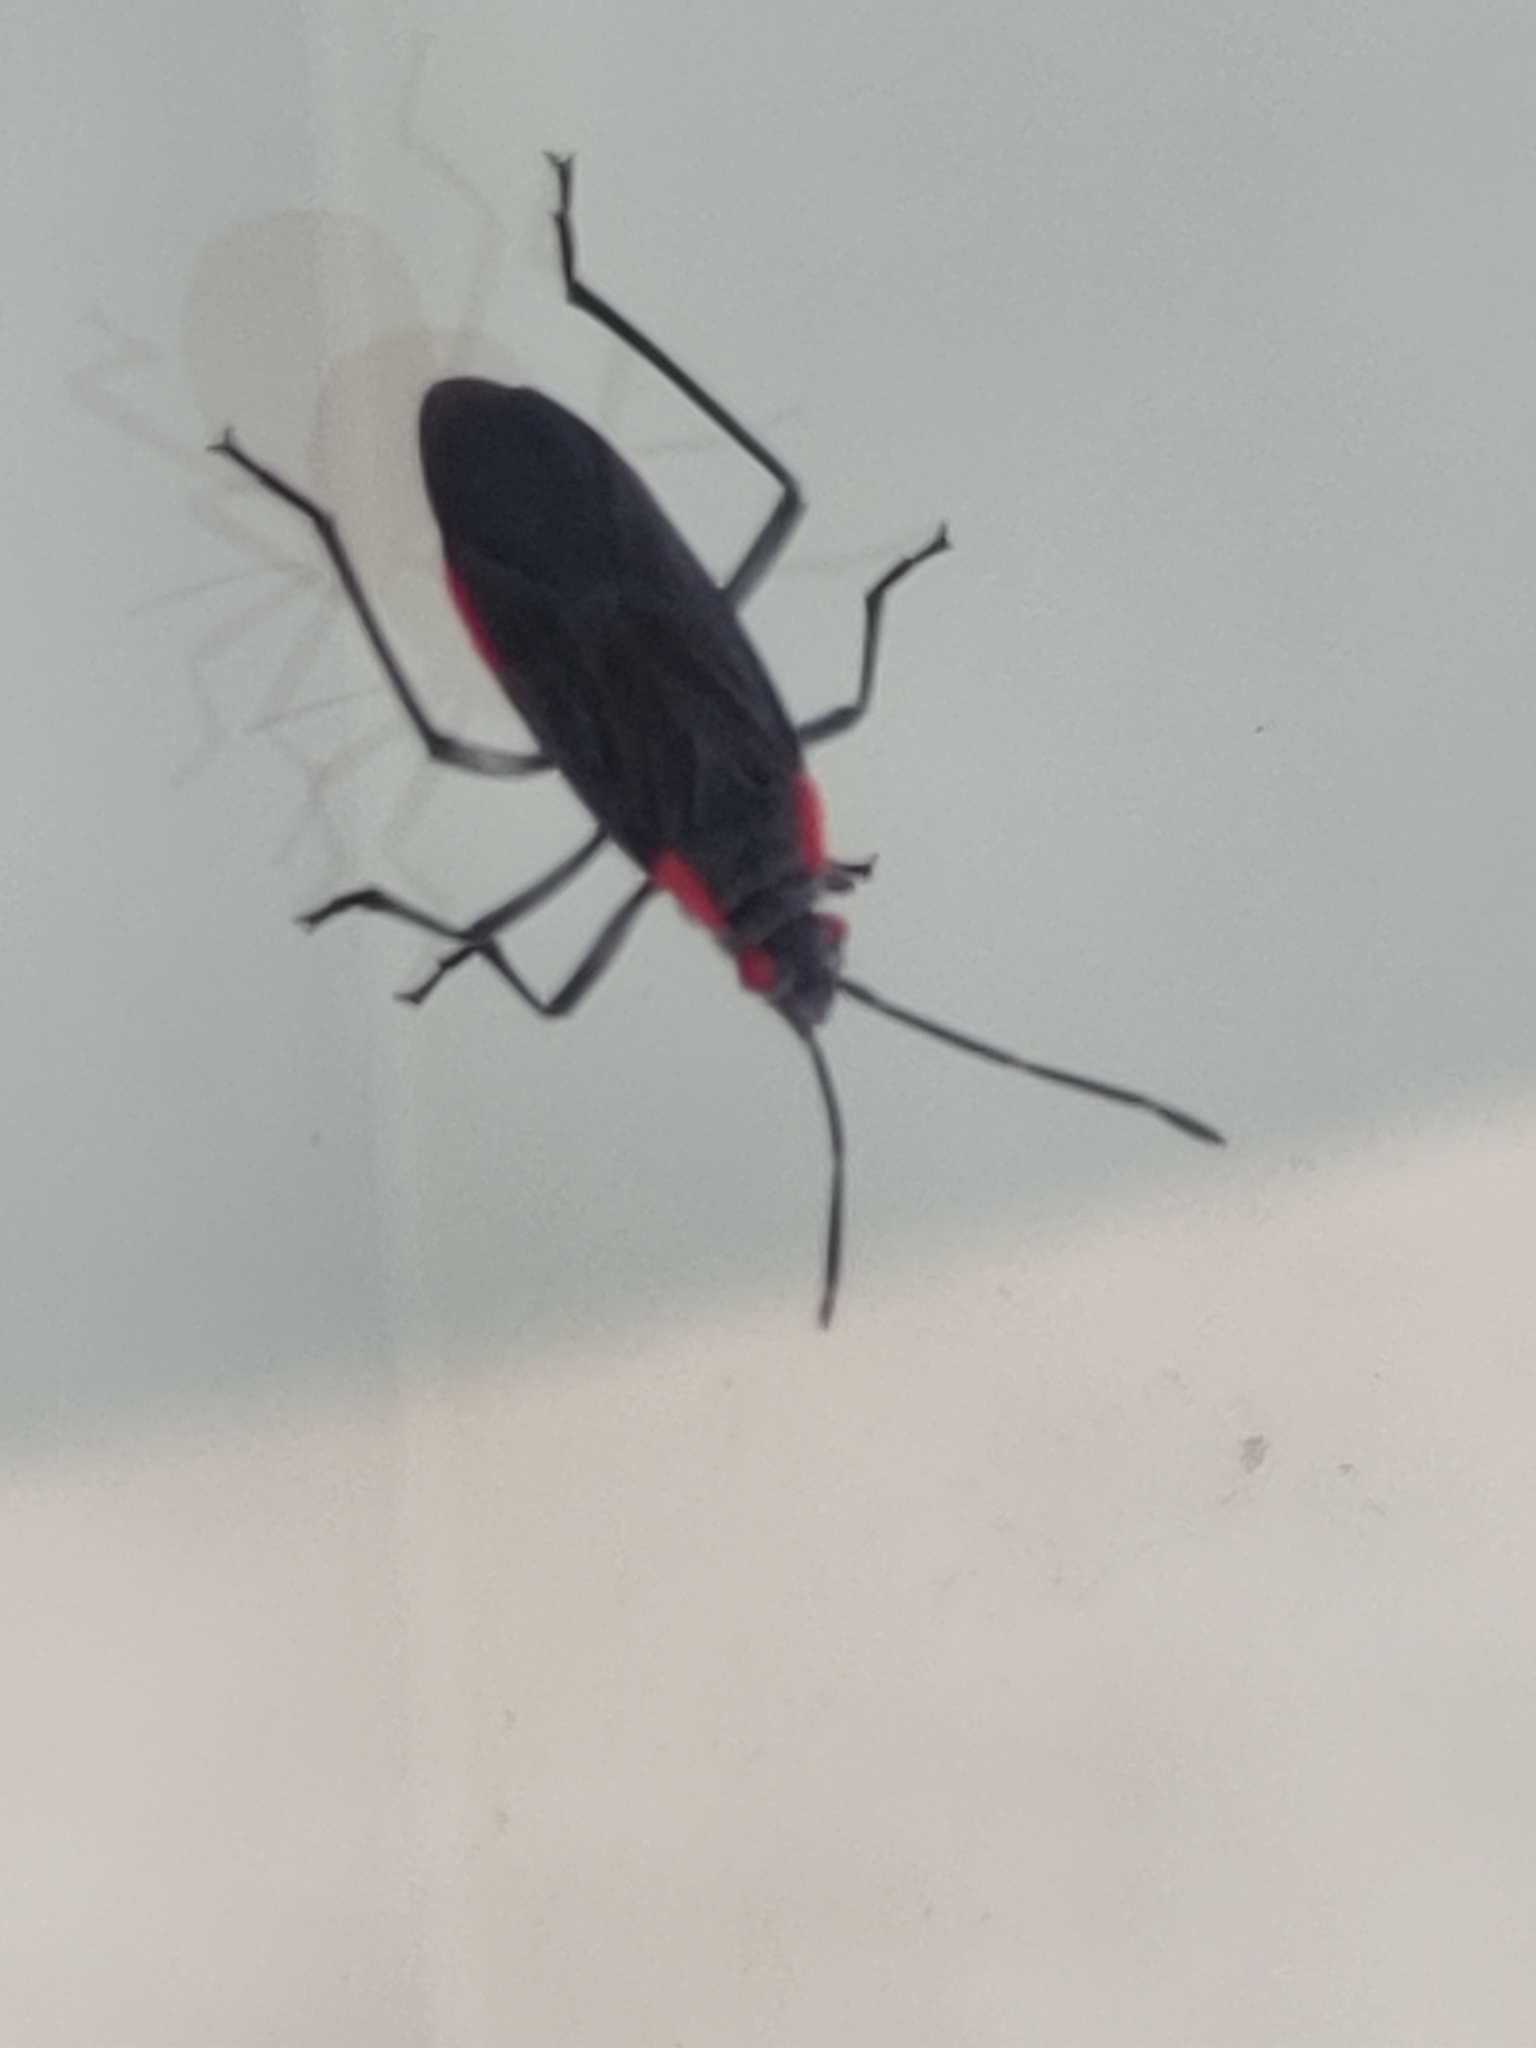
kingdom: Animalia
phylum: Arthropoda
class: Insecta
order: Hemiptera
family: Rhopalidae
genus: Jadera
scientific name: Jadera haematoloma
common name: Red-shouldered bug
